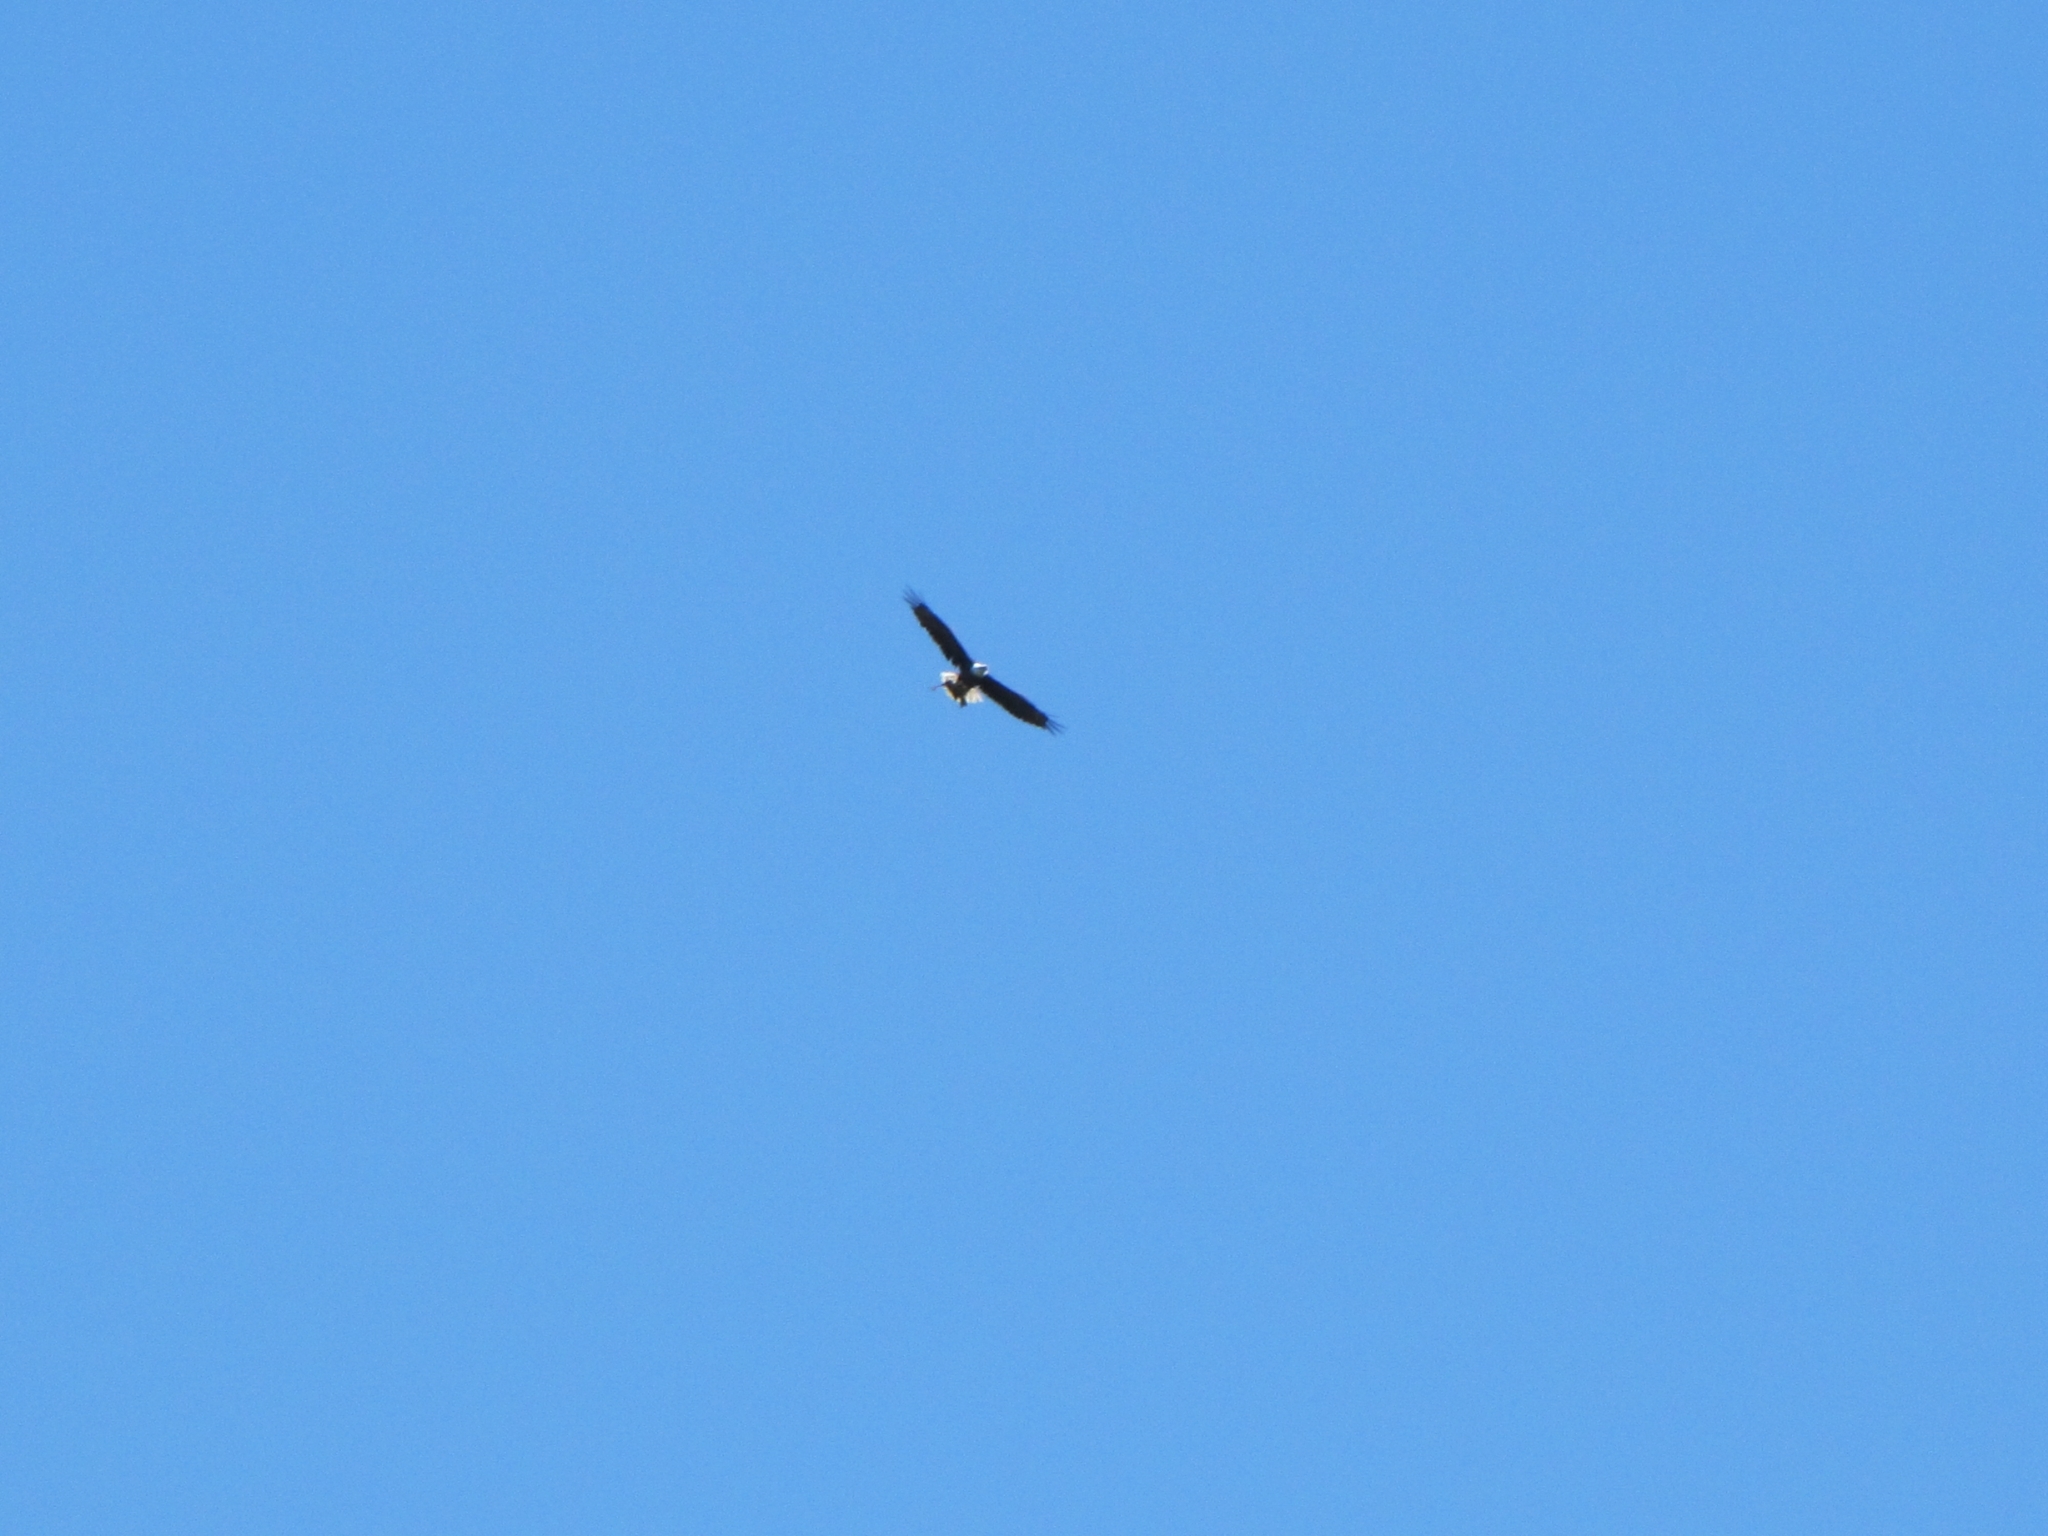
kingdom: Animalia
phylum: Chordata
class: Aves
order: Accipitriformes
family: Accipitridae
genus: Haliaeetus
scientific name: Haliaeetus leucocephalus
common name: Bald eagle
